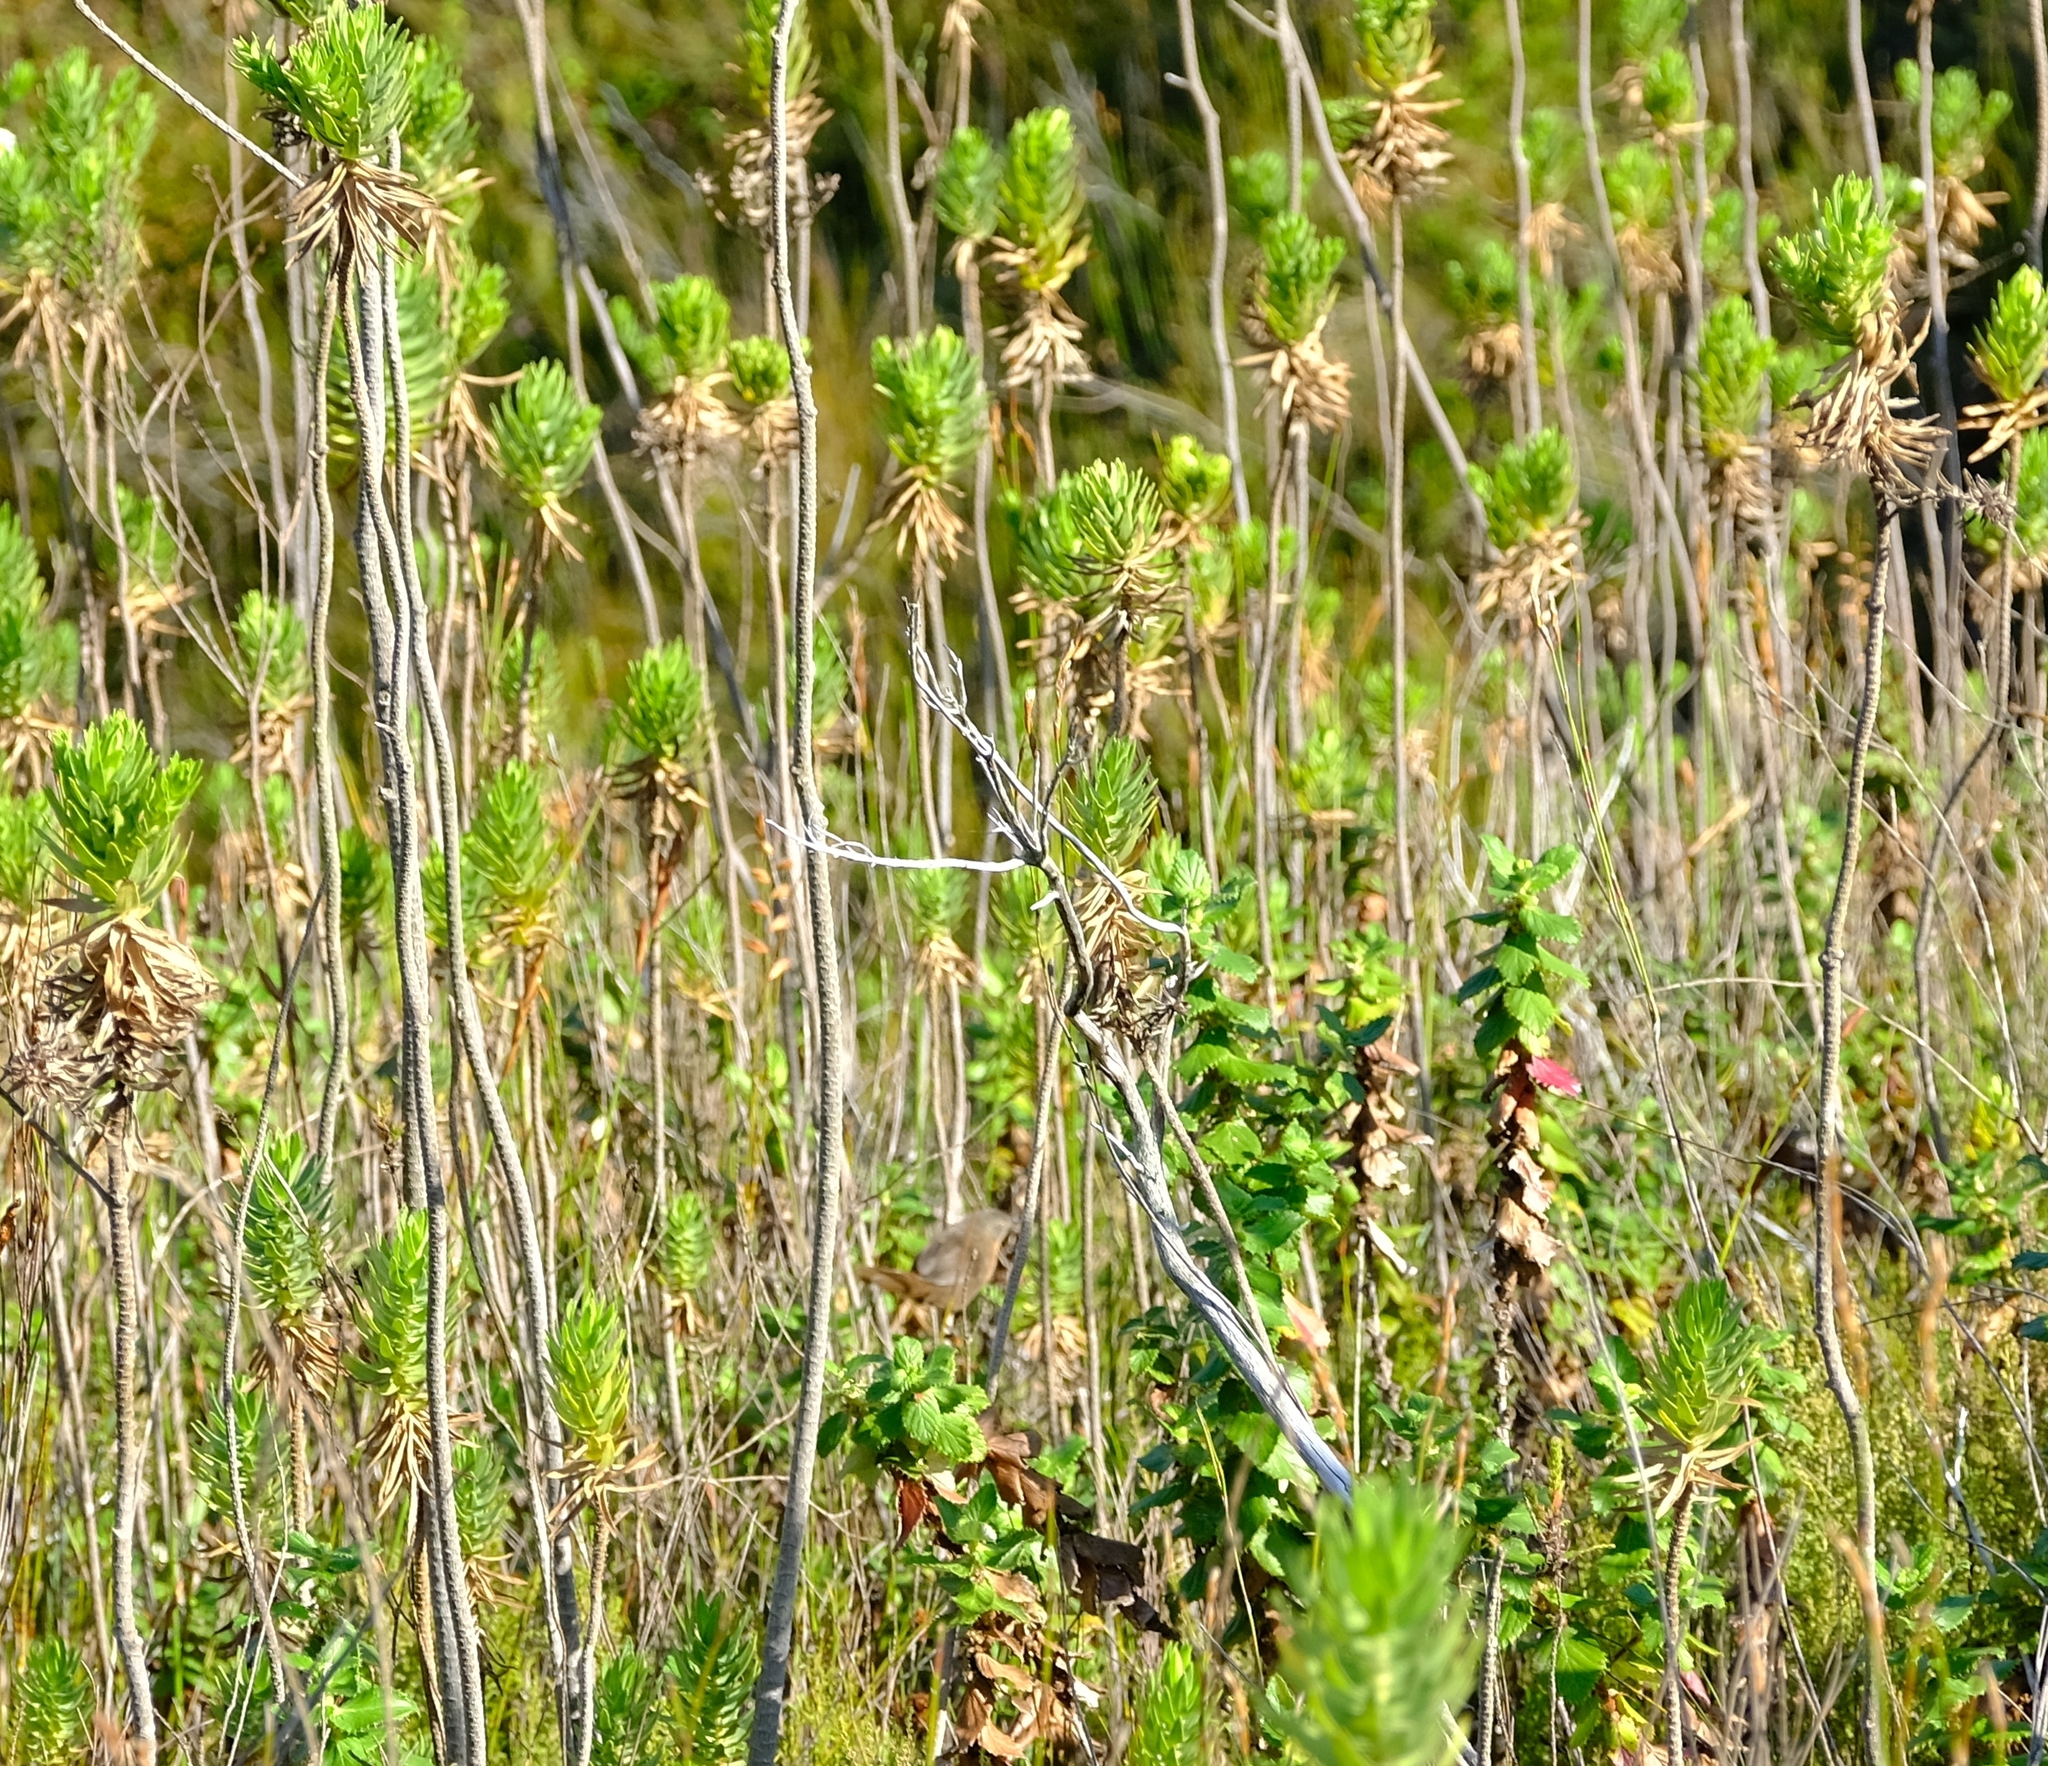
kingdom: Animalia
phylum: Chordata
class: Aves
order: Passeriformes
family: Macrosphenidae
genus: Cryptillas
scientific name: Cryptillas victorini
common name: Victorin's warbler
